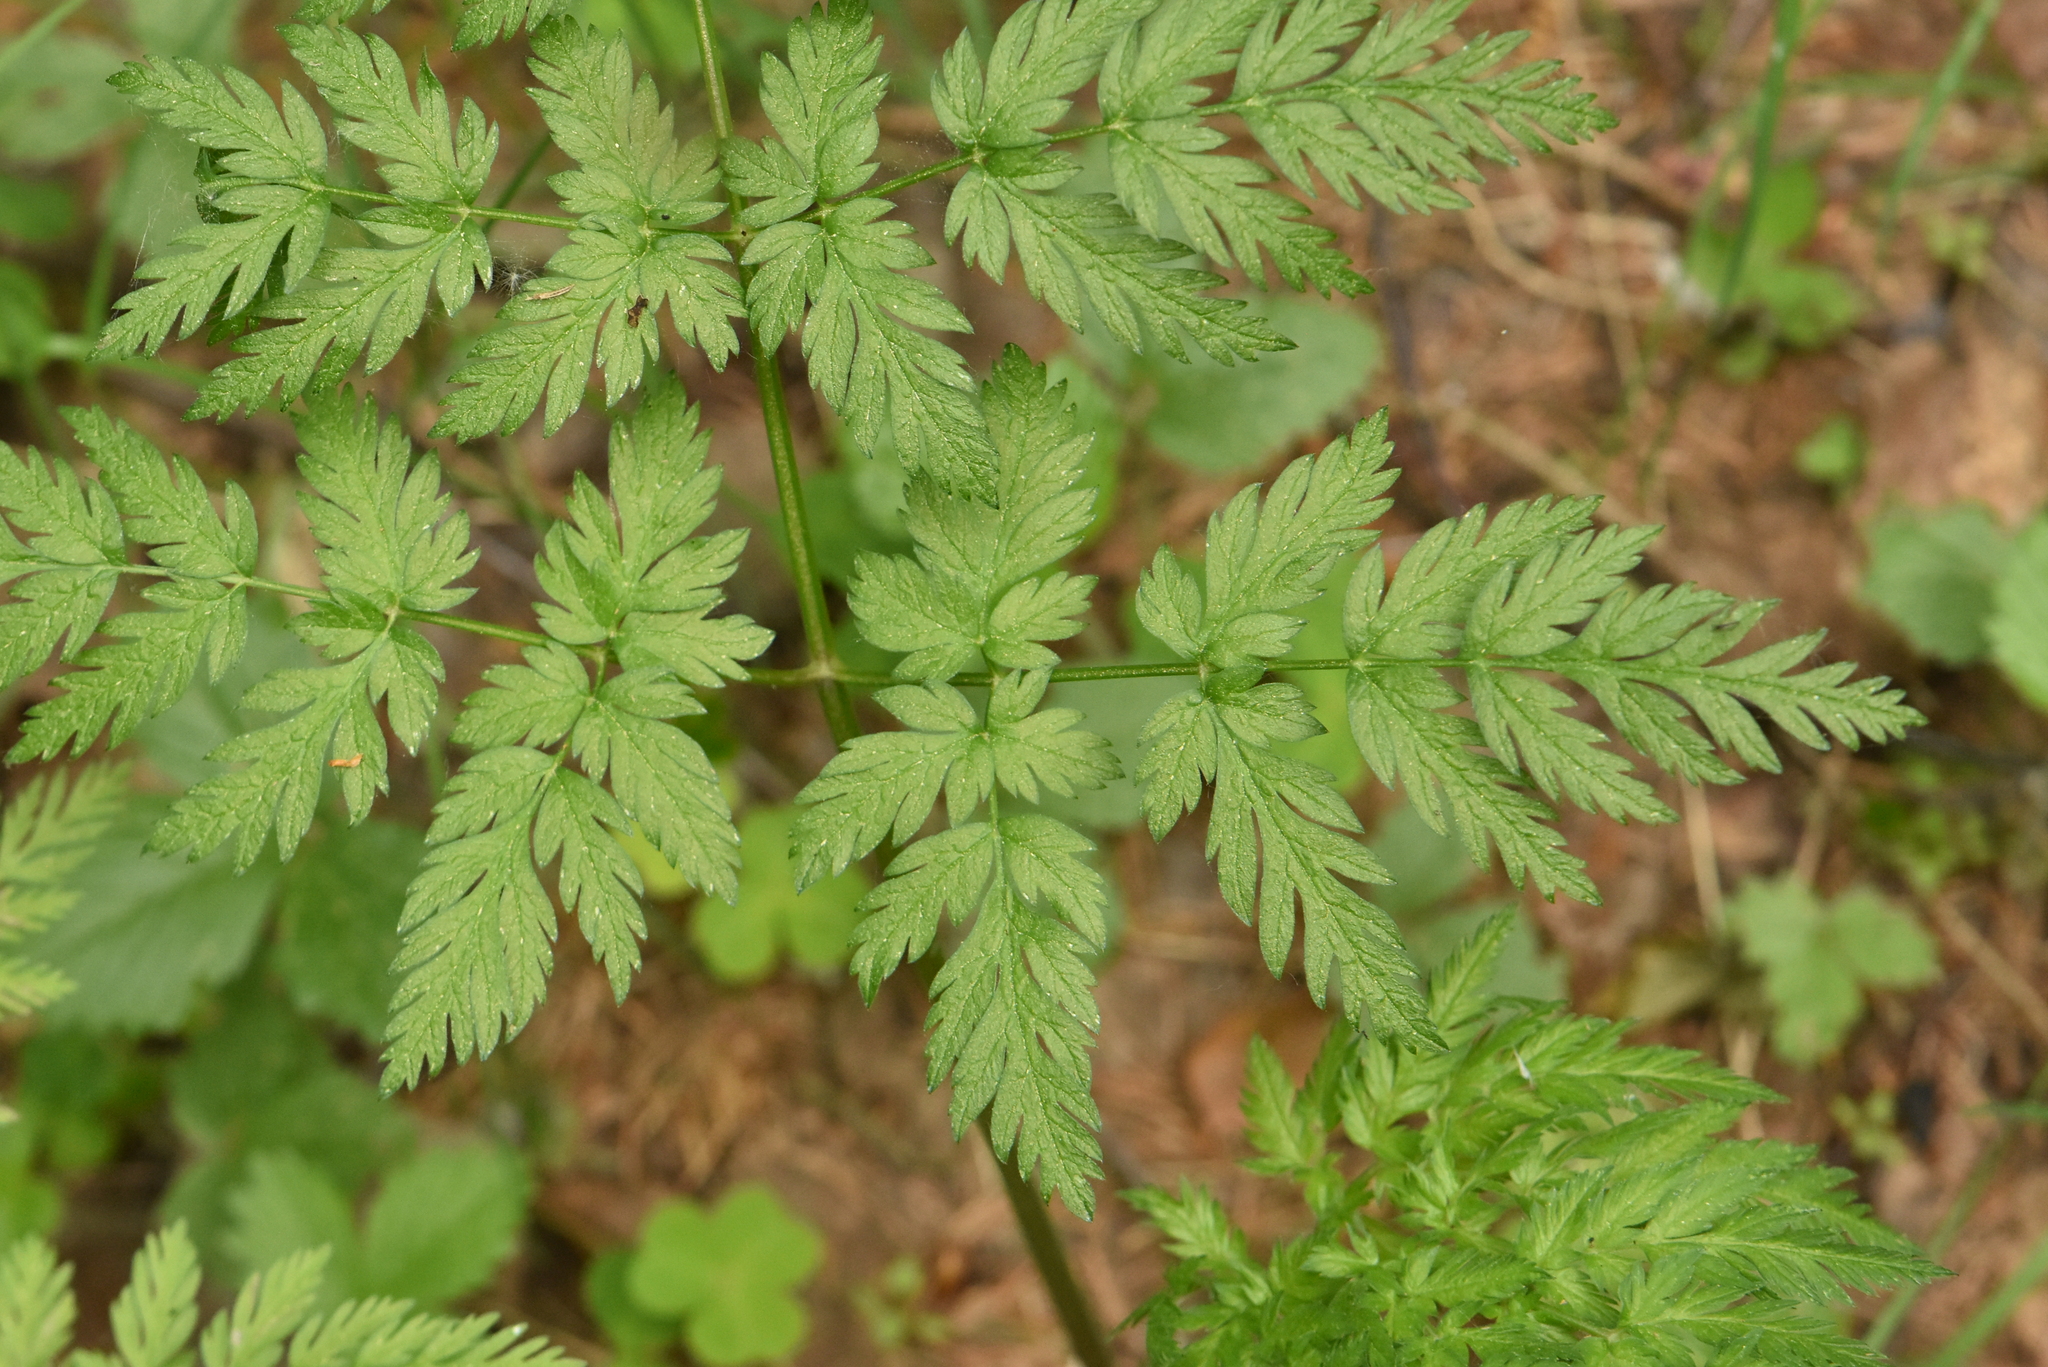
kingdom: Plantae
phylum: Tracheophyta
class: Magnoliopsida
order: Apiales
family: Apiaceae
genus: Anthriscus
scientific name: Anthriscus sylvestris
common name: Cow parsley
